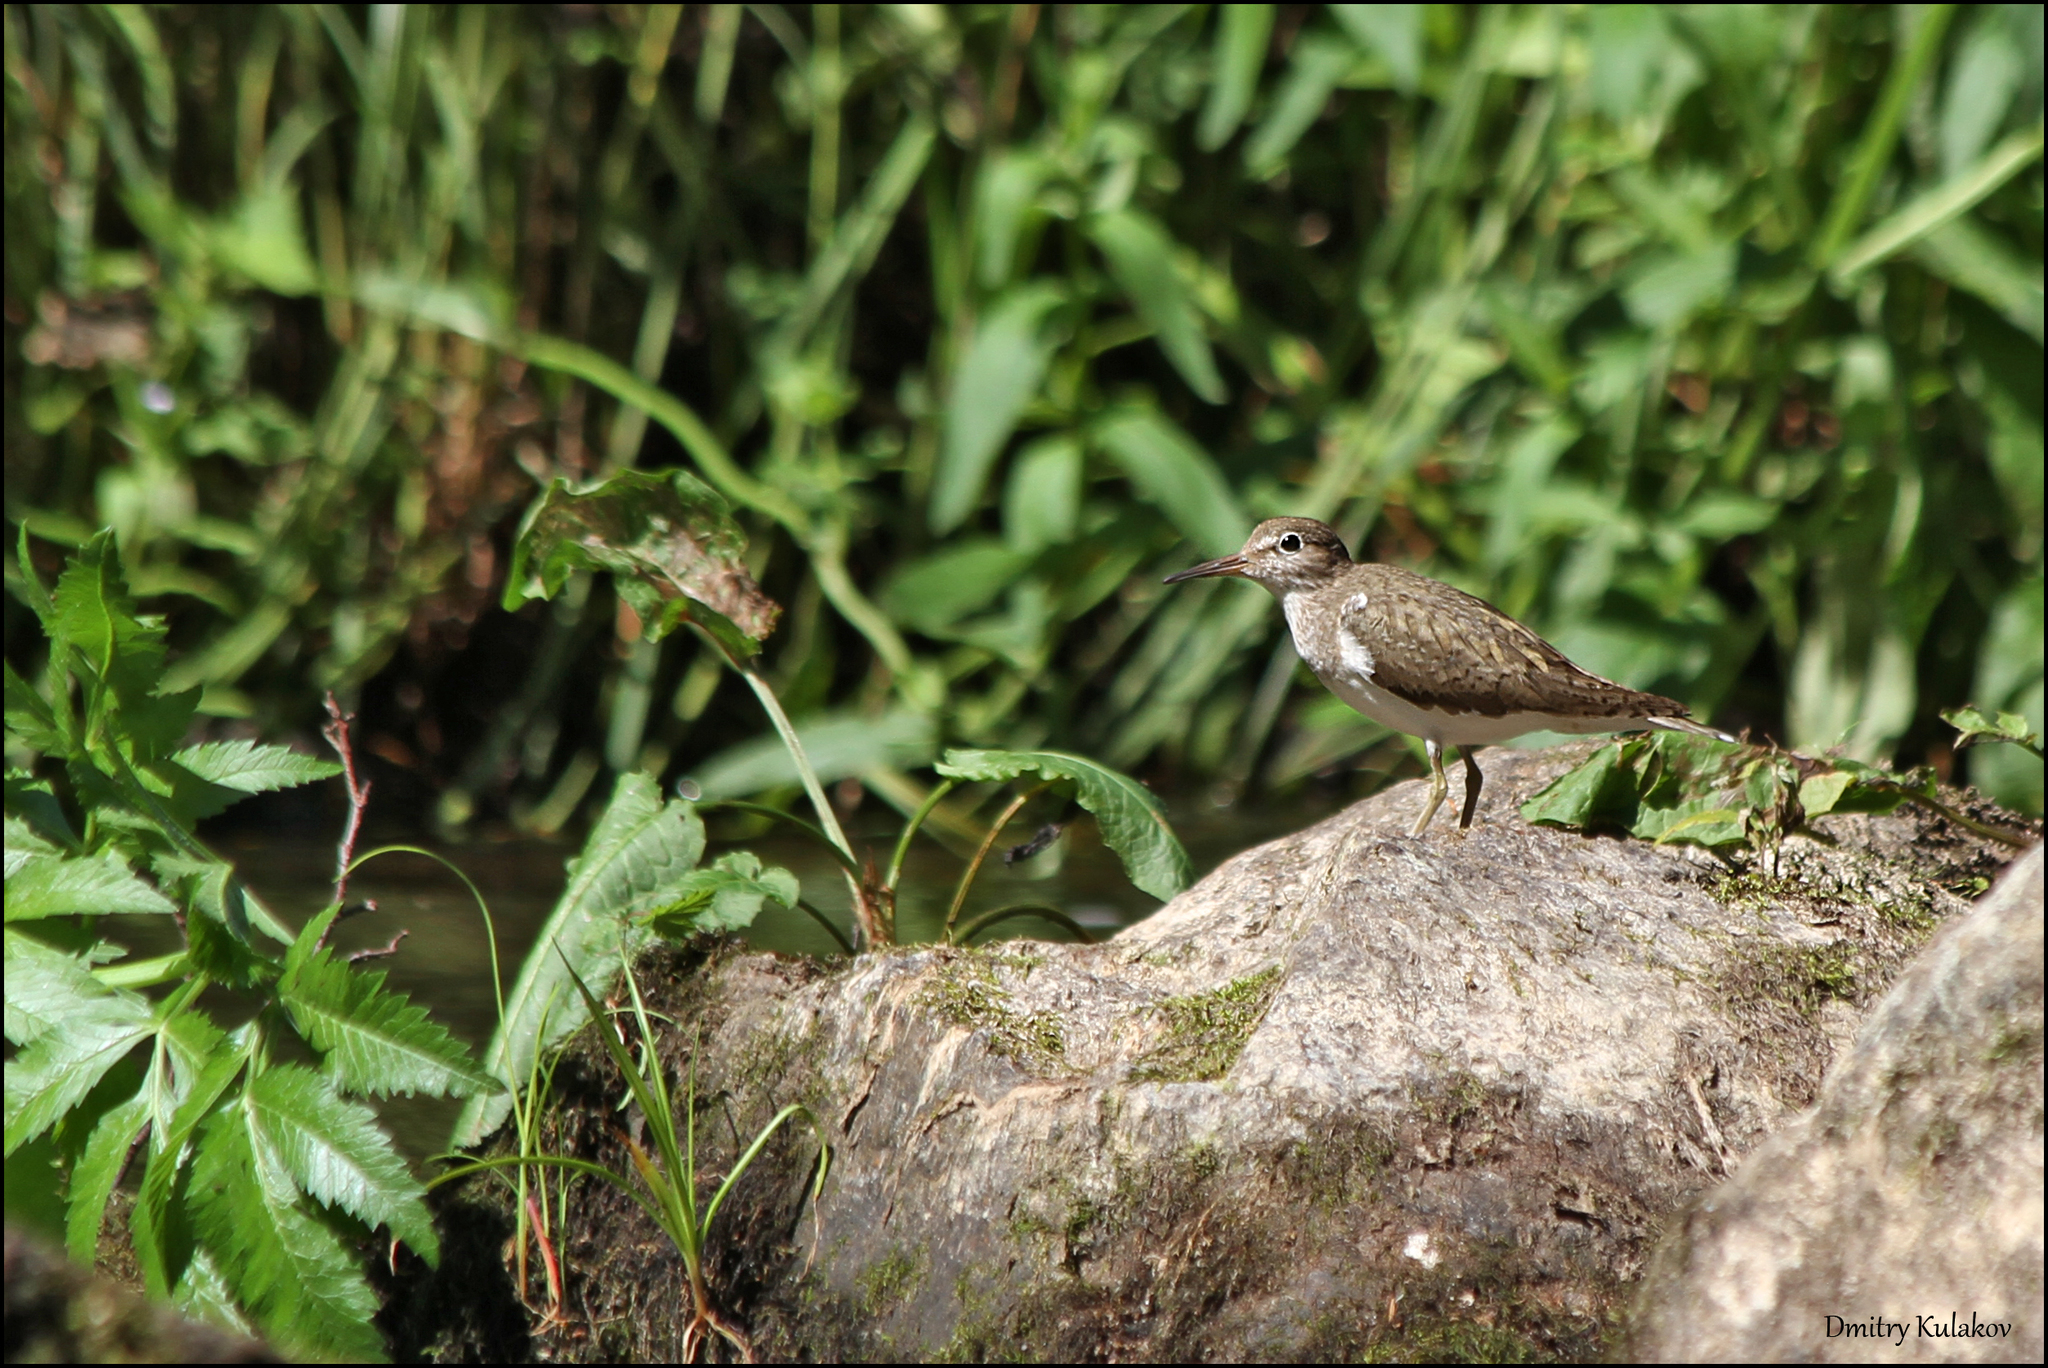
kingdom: Animalia
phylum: Chordata
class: Aves
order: Charadriiformes
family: Scolopacidae
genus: Actitis
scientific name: Actitis hypoleucos
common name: Common sandpiper
